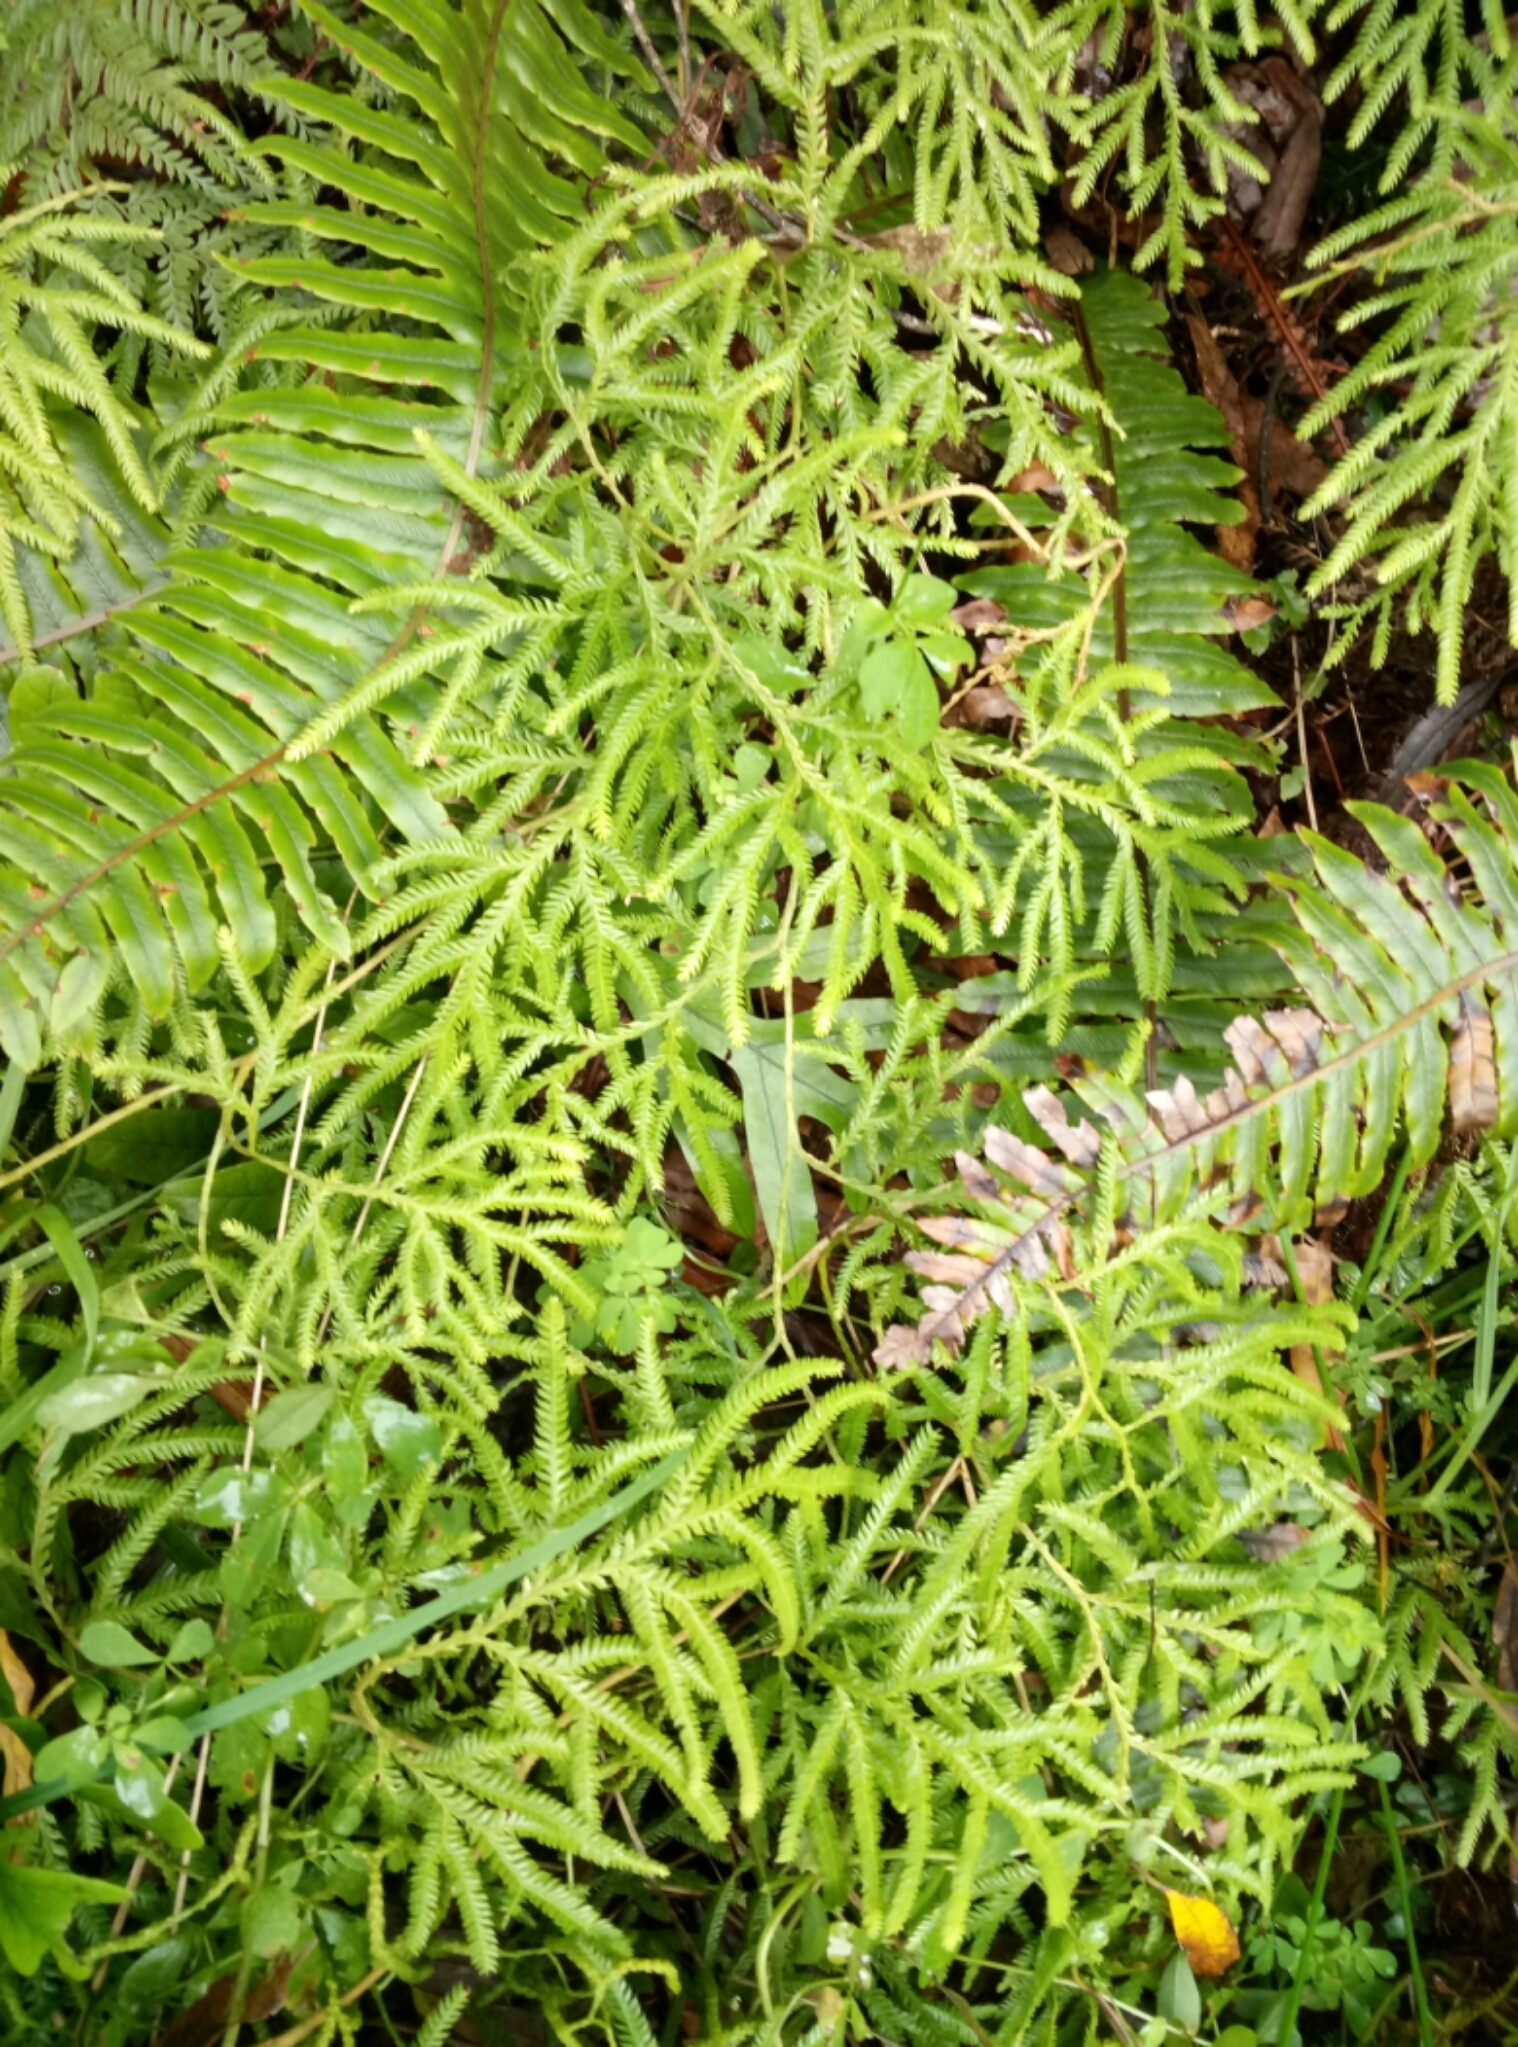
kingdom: Plantae
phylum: Tracheophyta
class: Lycopodiopsida
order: Lycopodiales
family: Lycopodiaceae
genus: Lycopodium
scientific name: Lycopodium volubile
